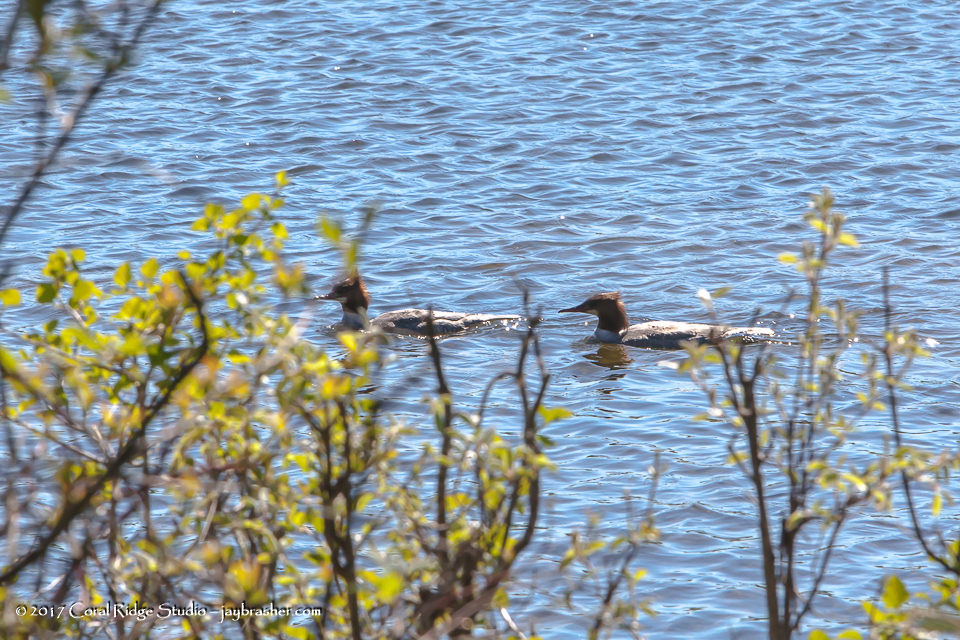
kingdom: Animalia
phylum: Chordata
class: Aves
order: Anseriformes
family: Anatidae
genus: Mergus
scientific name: Mergus merganser
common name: Common merganser
